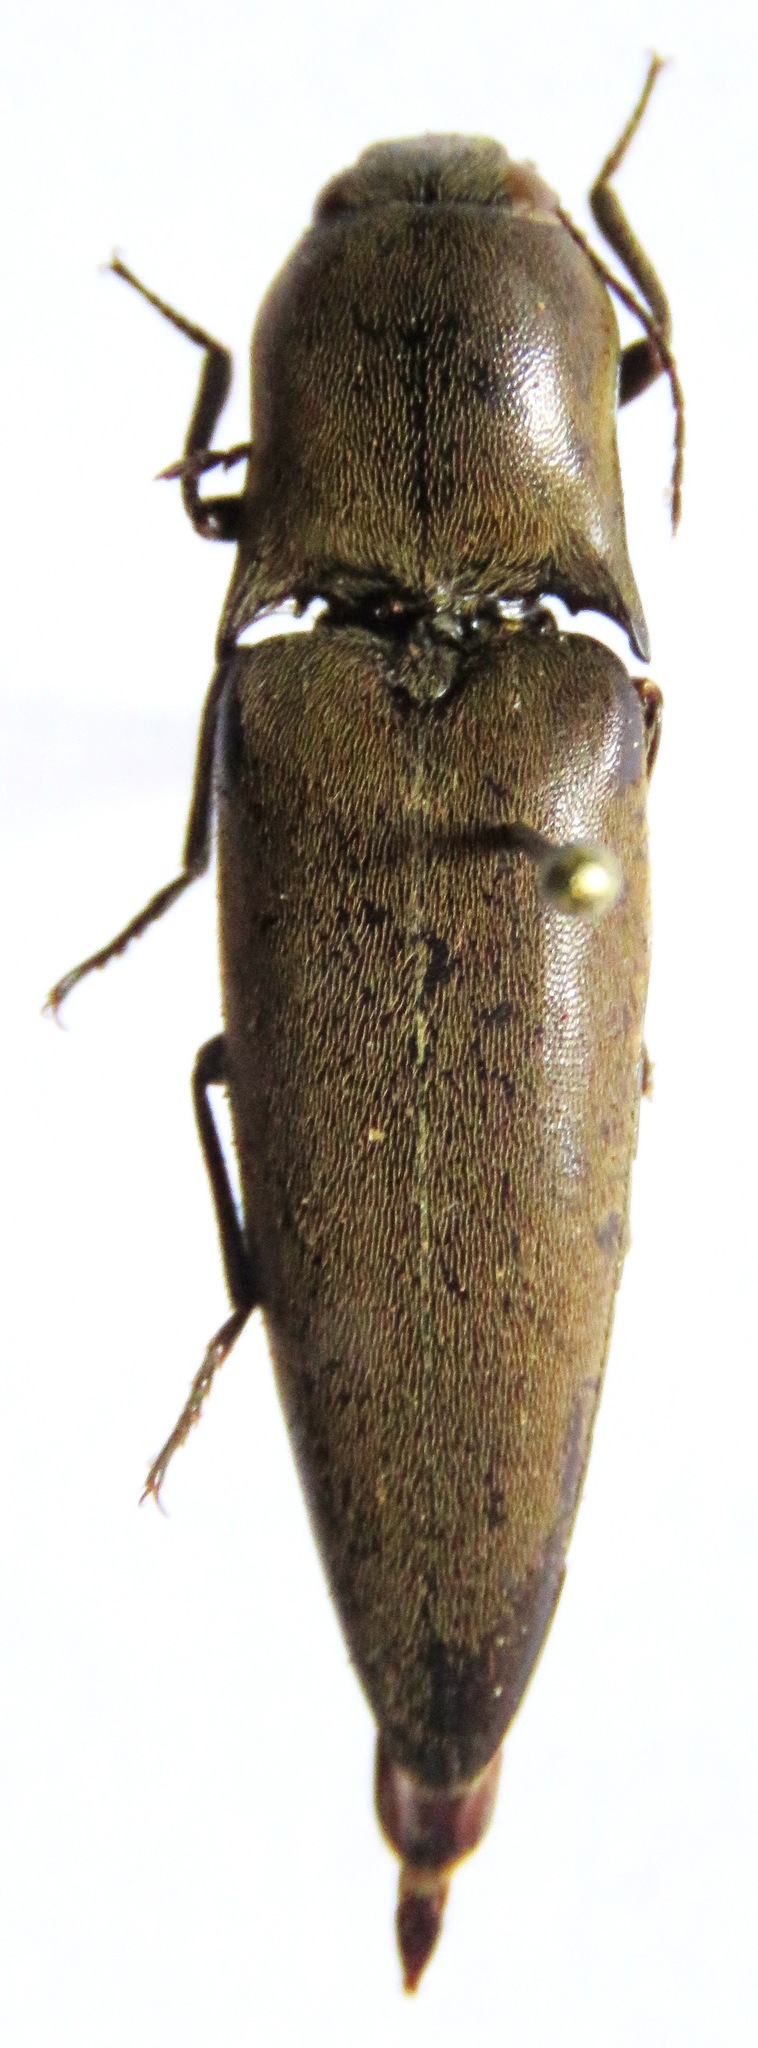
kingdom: Animalia
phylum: Arthropoda
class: Insecta
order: Coleoptera
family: Elateridae
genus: Orthostethus
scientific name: Orthostethus infuscatus
